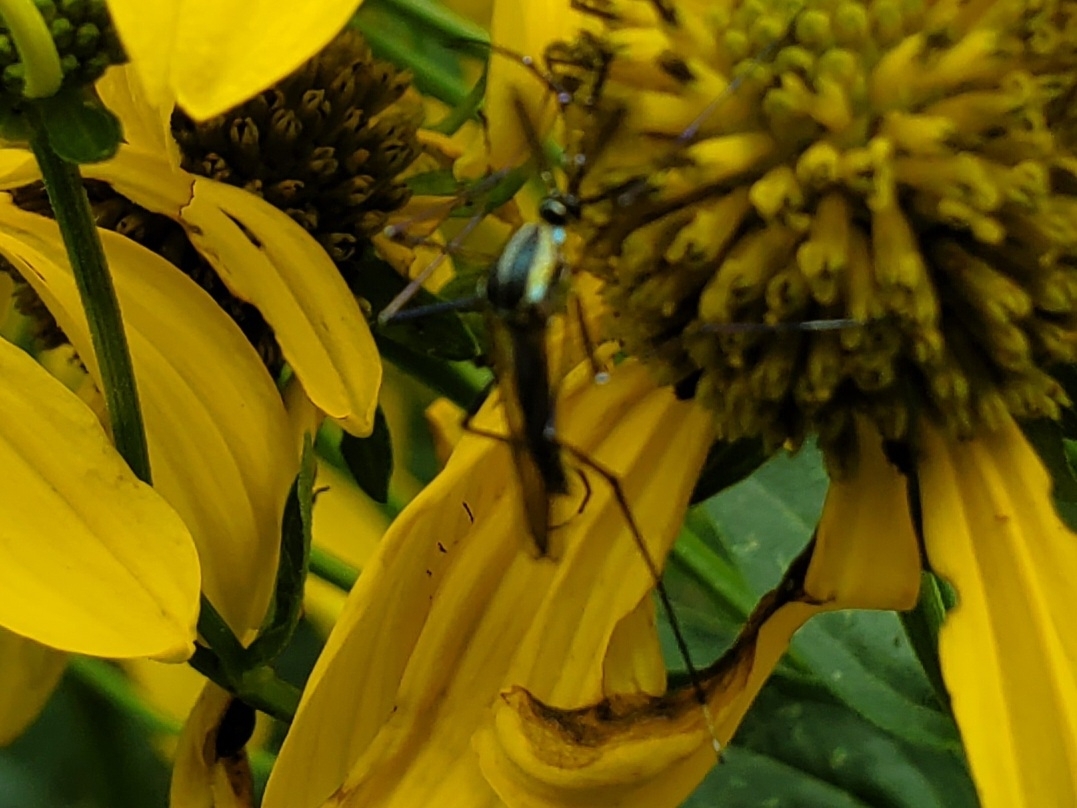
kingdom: Animalia
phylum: Arthropoda
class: Insecta
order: Diptera
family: Culicidae
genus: Toxorhynchites
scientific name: Toxorhynchites rutilus
